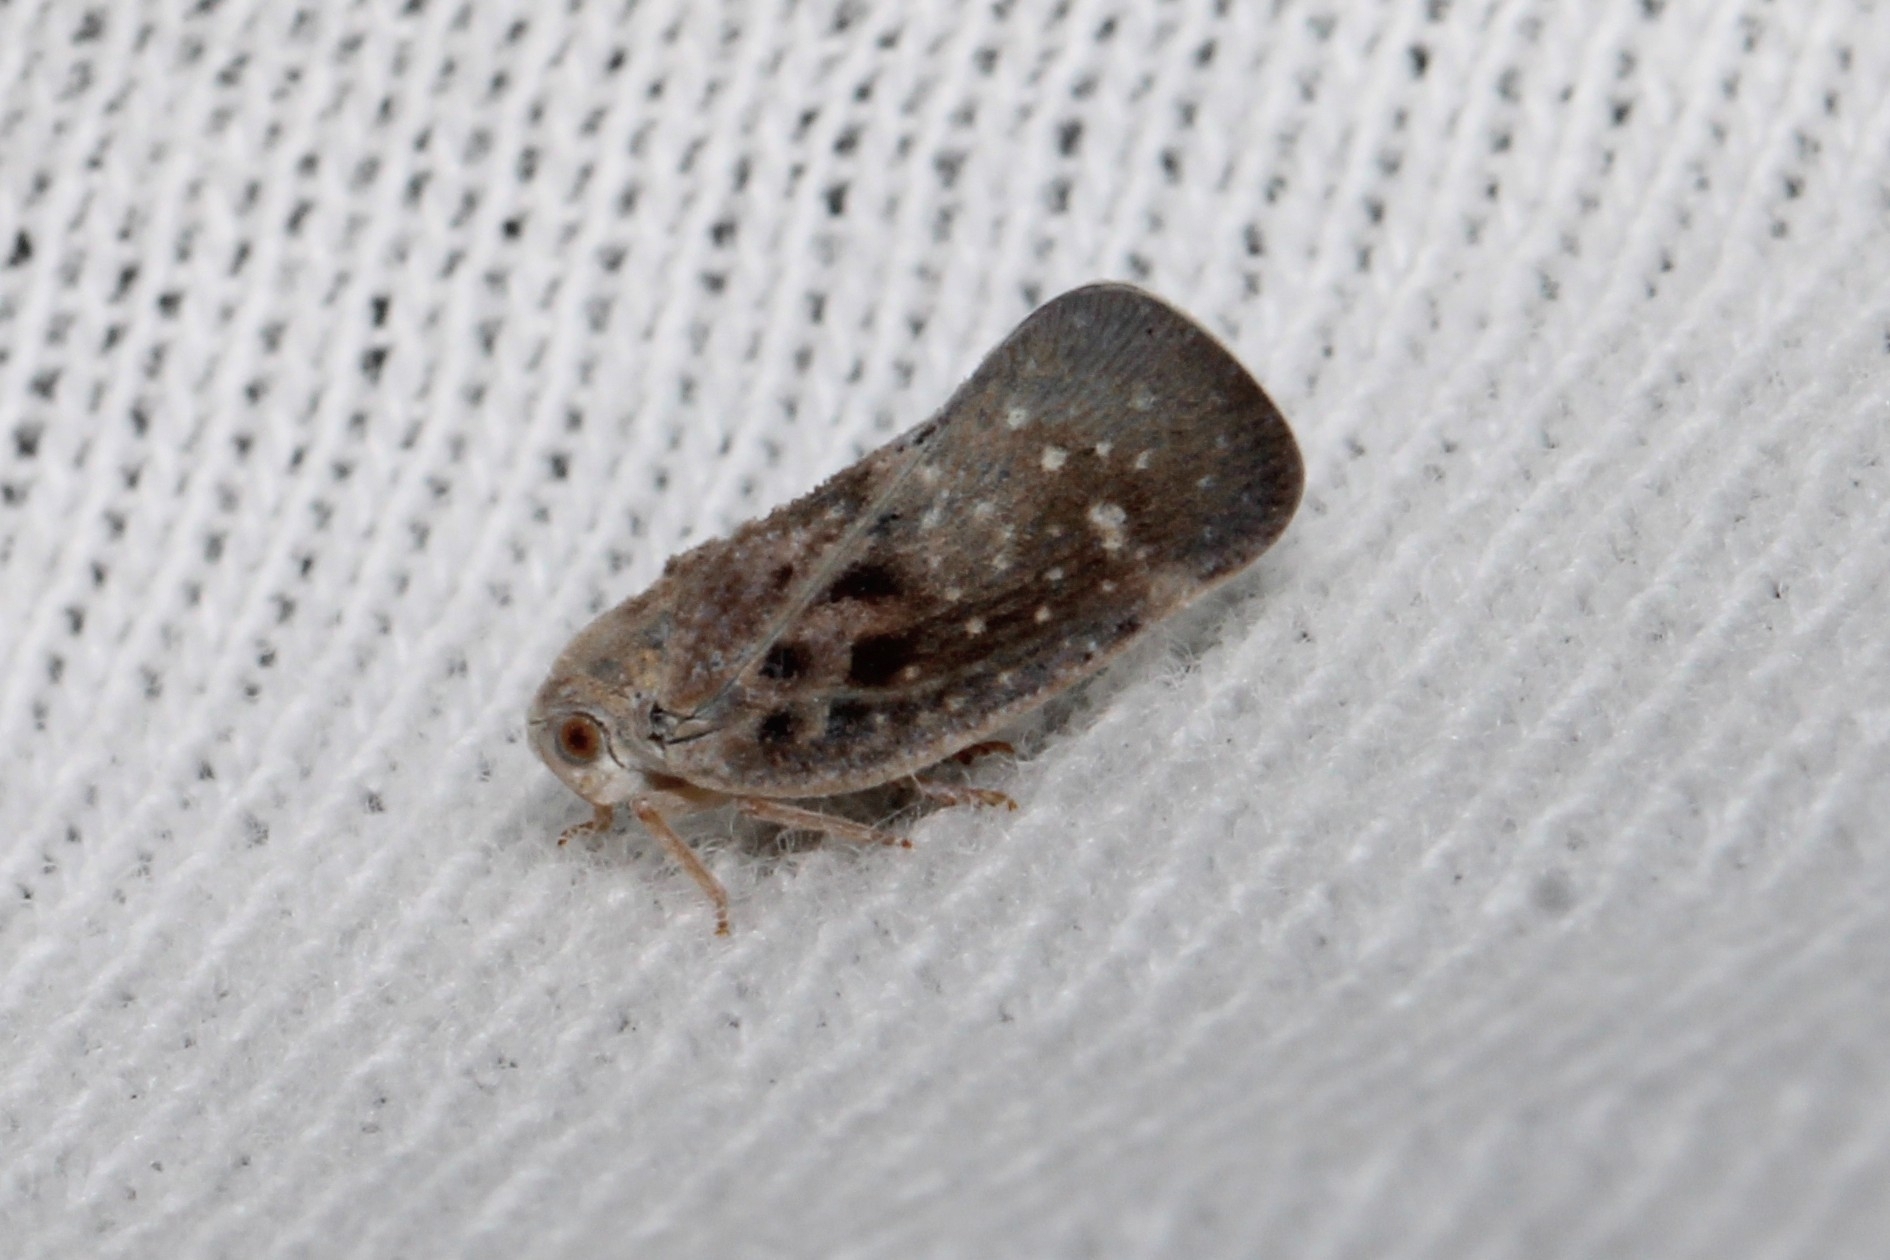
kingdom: Animalia
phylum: Arthropoda
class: Insecta
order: Hemiptera
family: Flatidae
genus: Metcalfa
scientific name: Metcalfa pruinosa
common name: Citrus flatid planthopper
